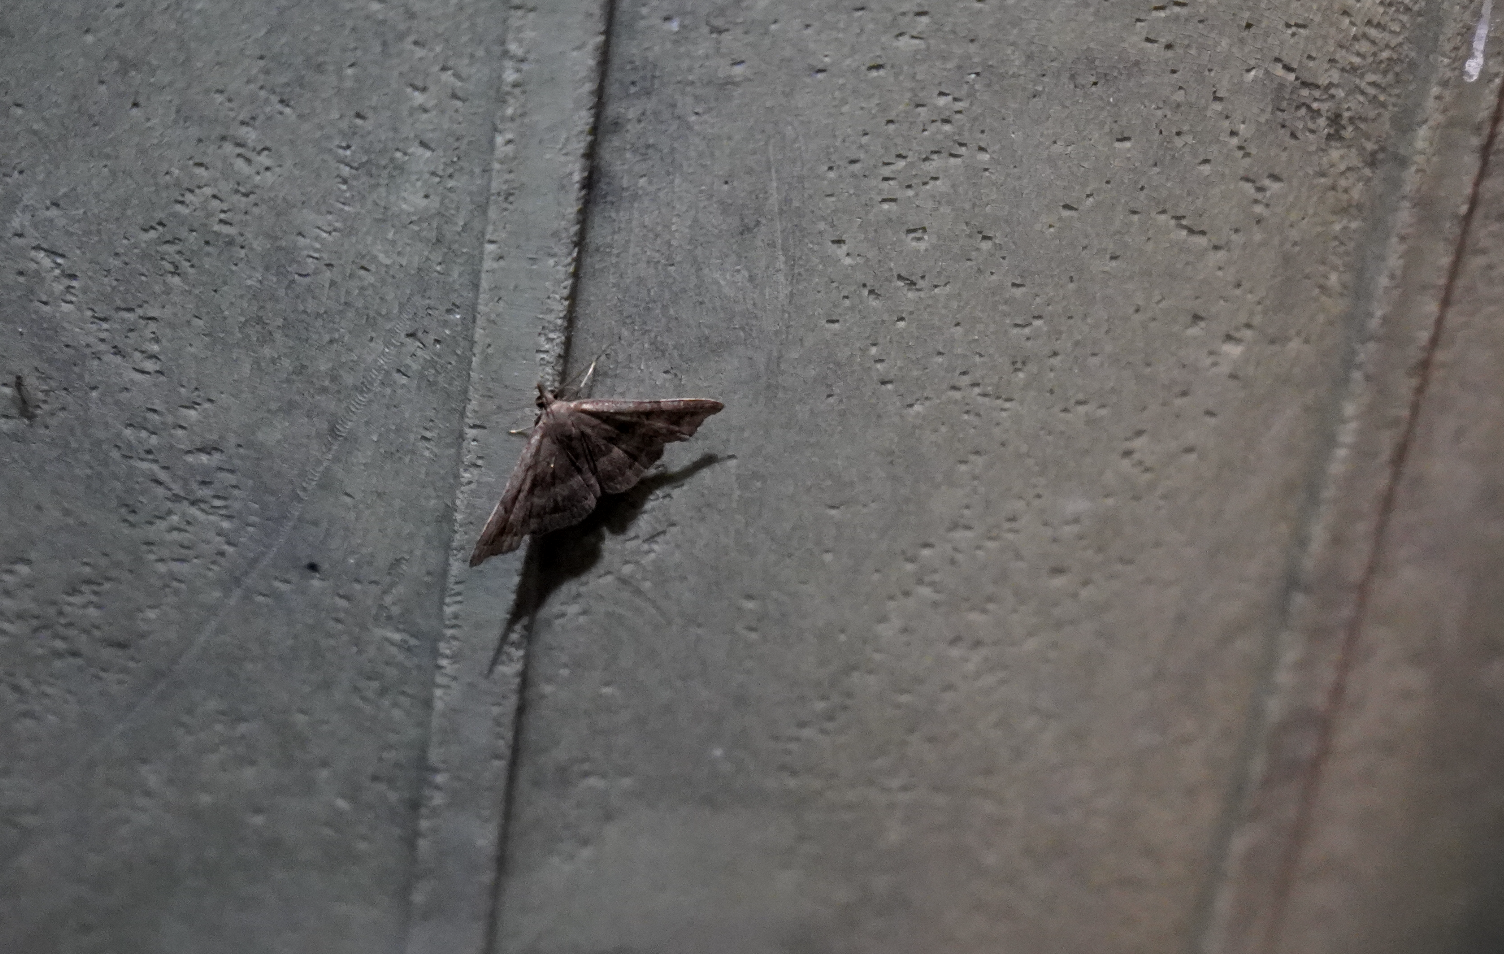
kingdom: Animalia
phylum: Arthropoda
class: Insecta
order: Lepidoptera
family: Erebidae
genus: Phalaenostola
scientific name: Phalaenostola larentioides
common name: Black-banded owlet
